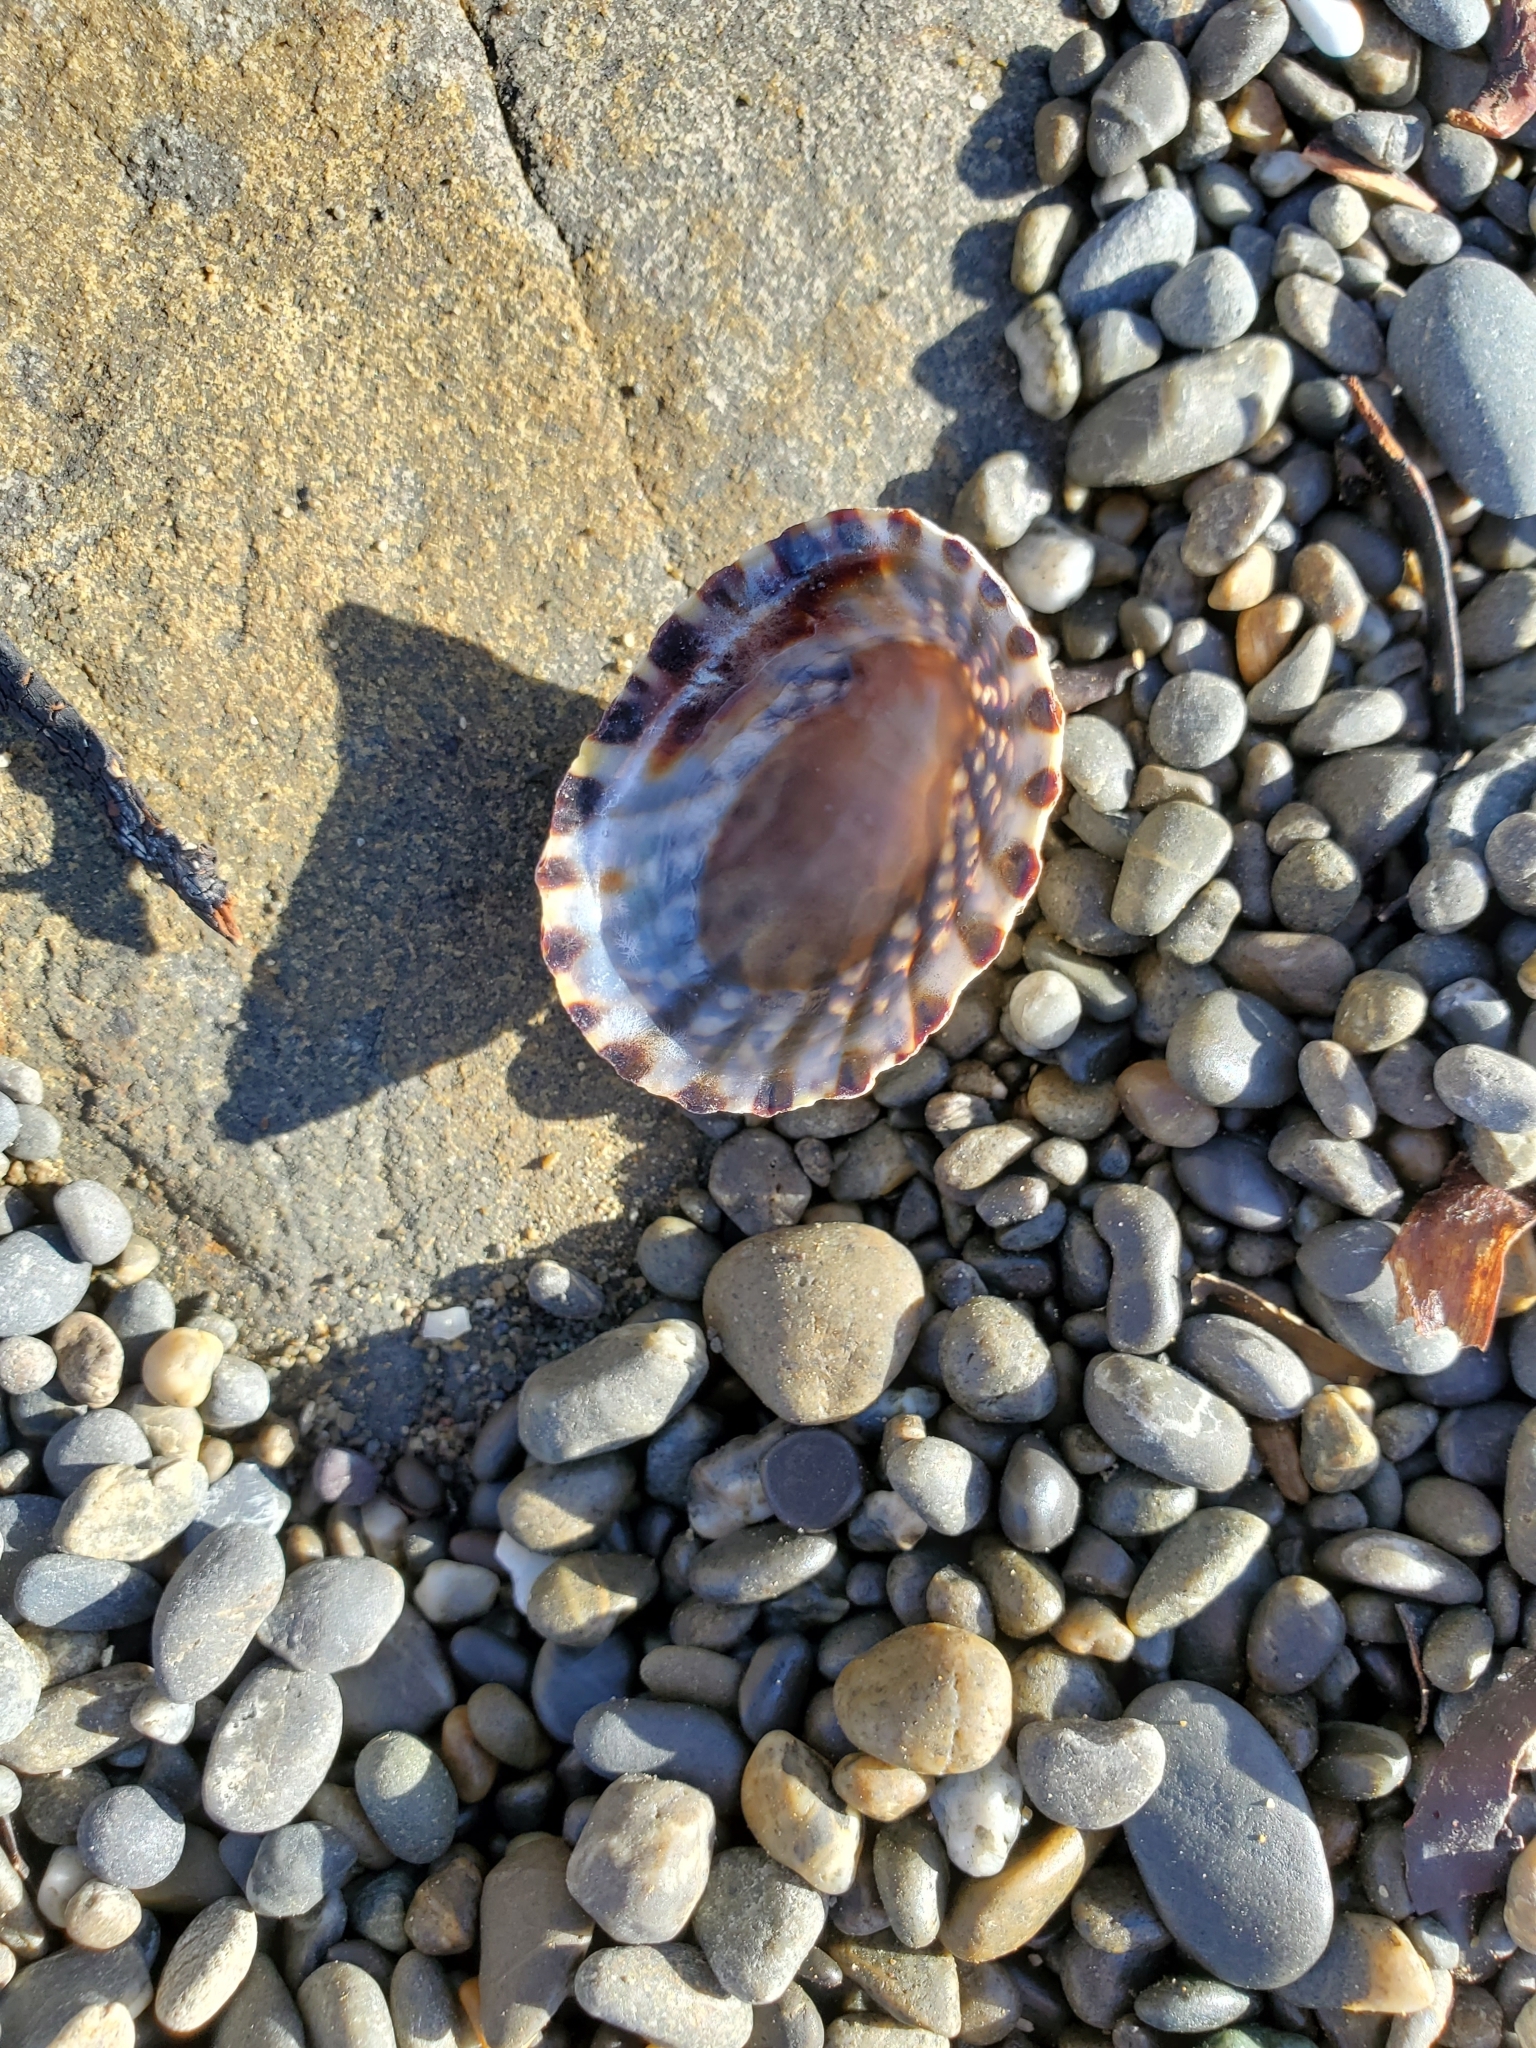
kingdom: Animalia
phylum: Mollusca
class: Gastropoda
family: Nacellidae
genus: Cellana
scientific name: Cellana denticulata
